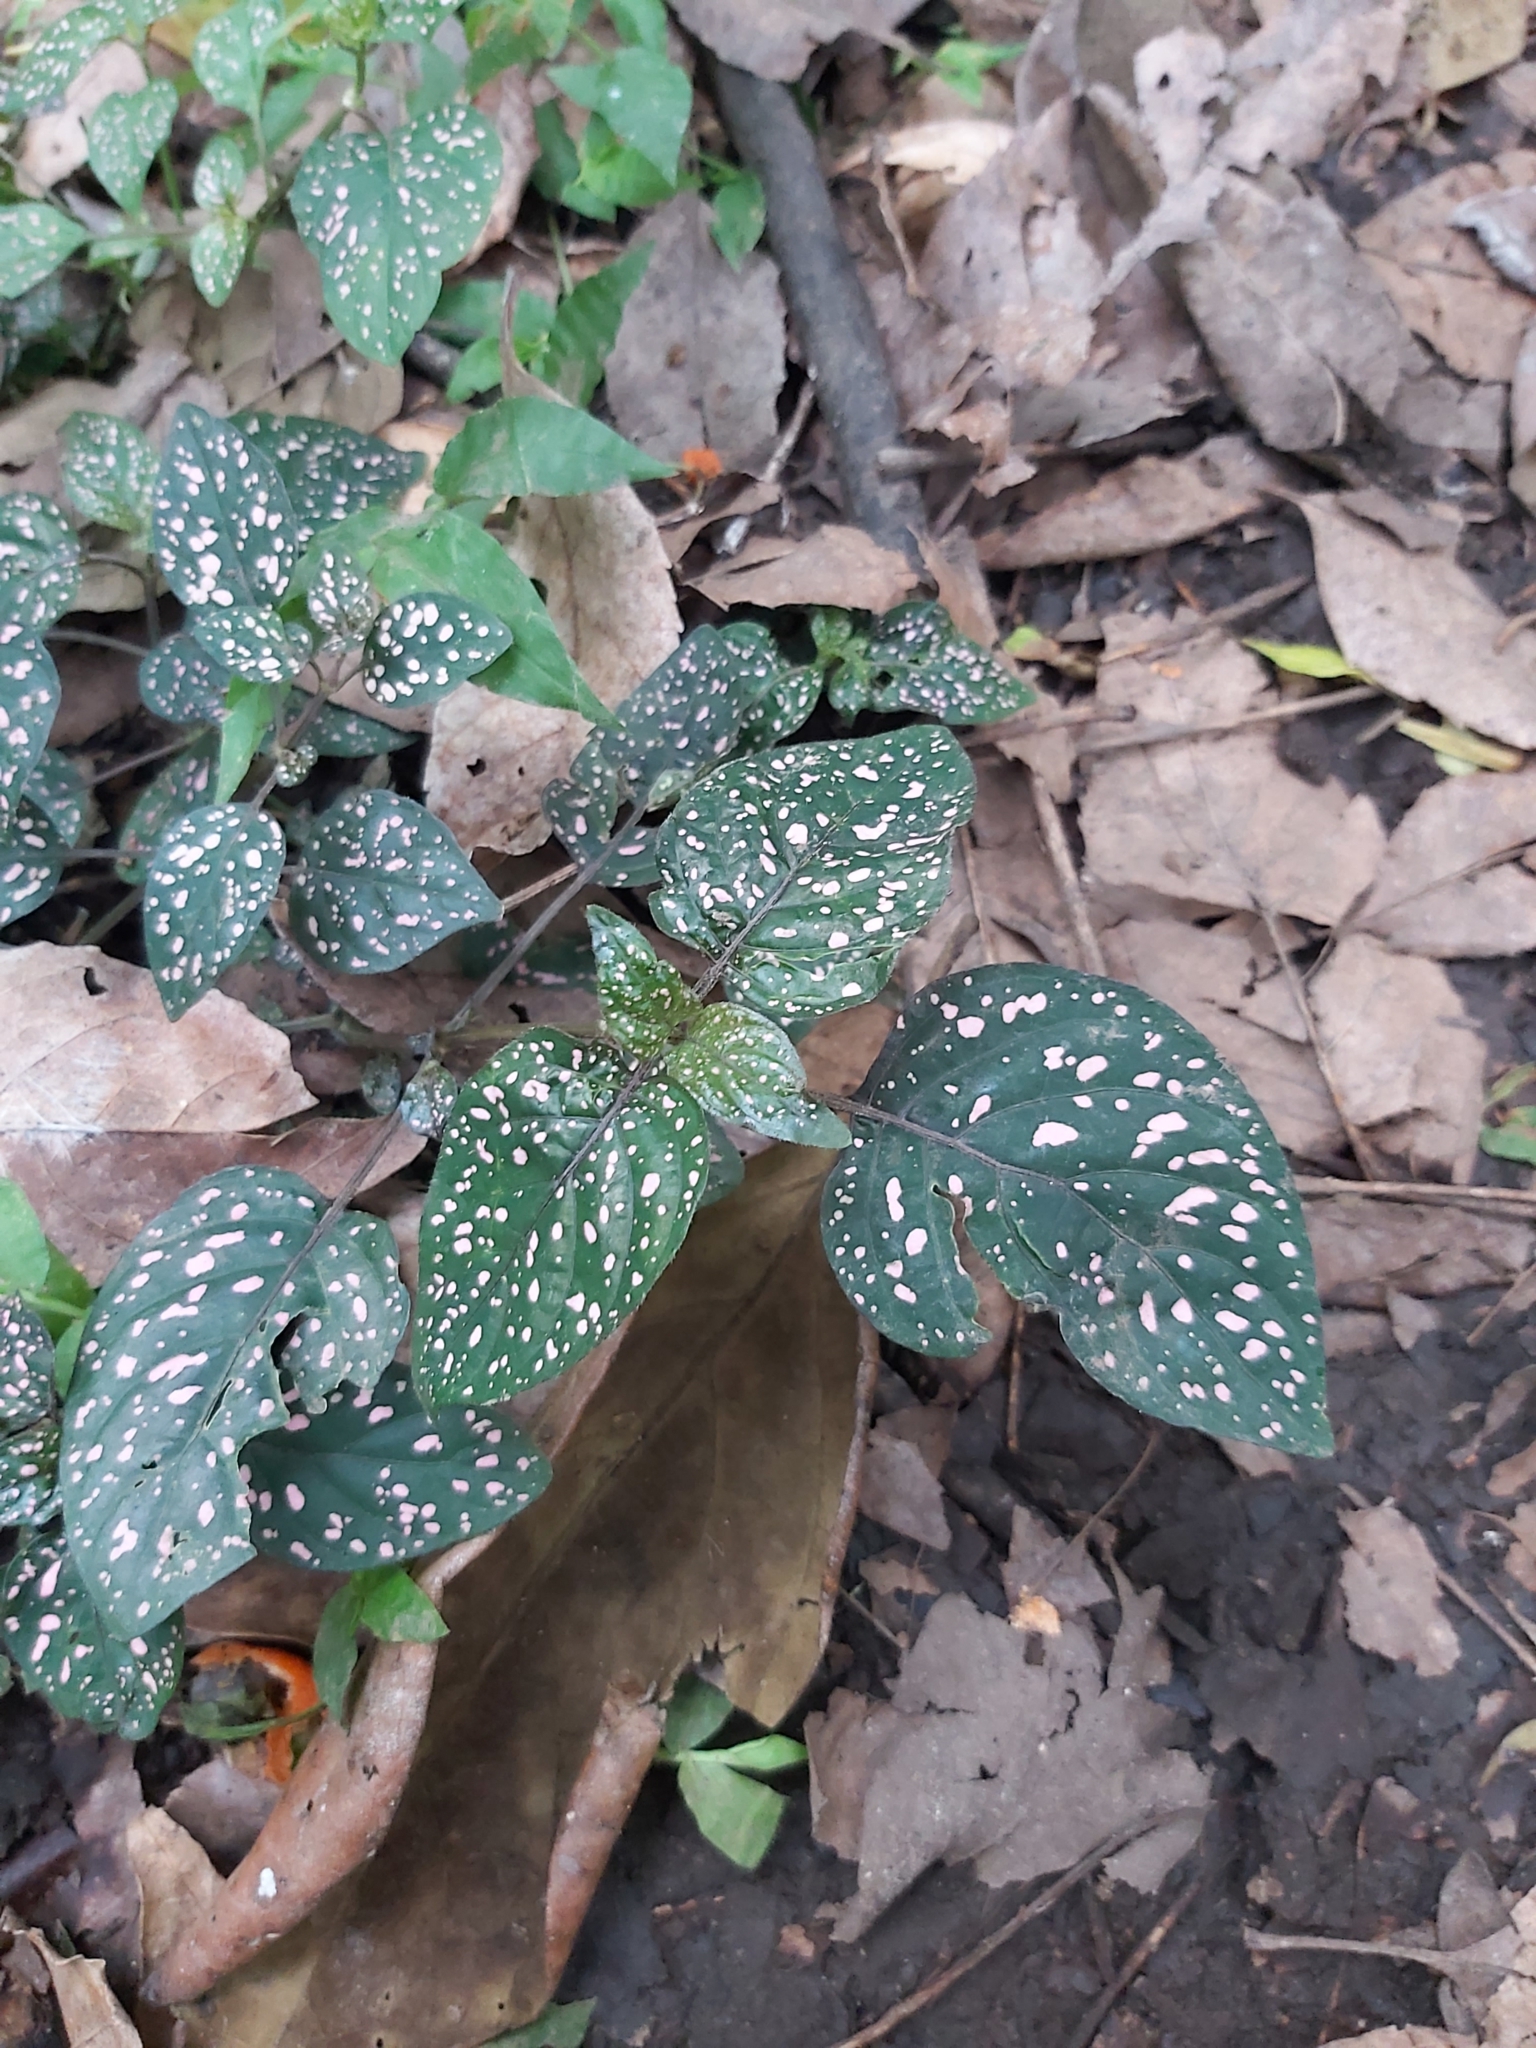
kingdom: Plantae
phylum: Tracheophyta
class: Magnoliopsida
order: Lamiales
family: Acanthaceae
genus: Hypoestes
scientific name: Hypoestes phyllostachya
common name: Polkadot-plant
